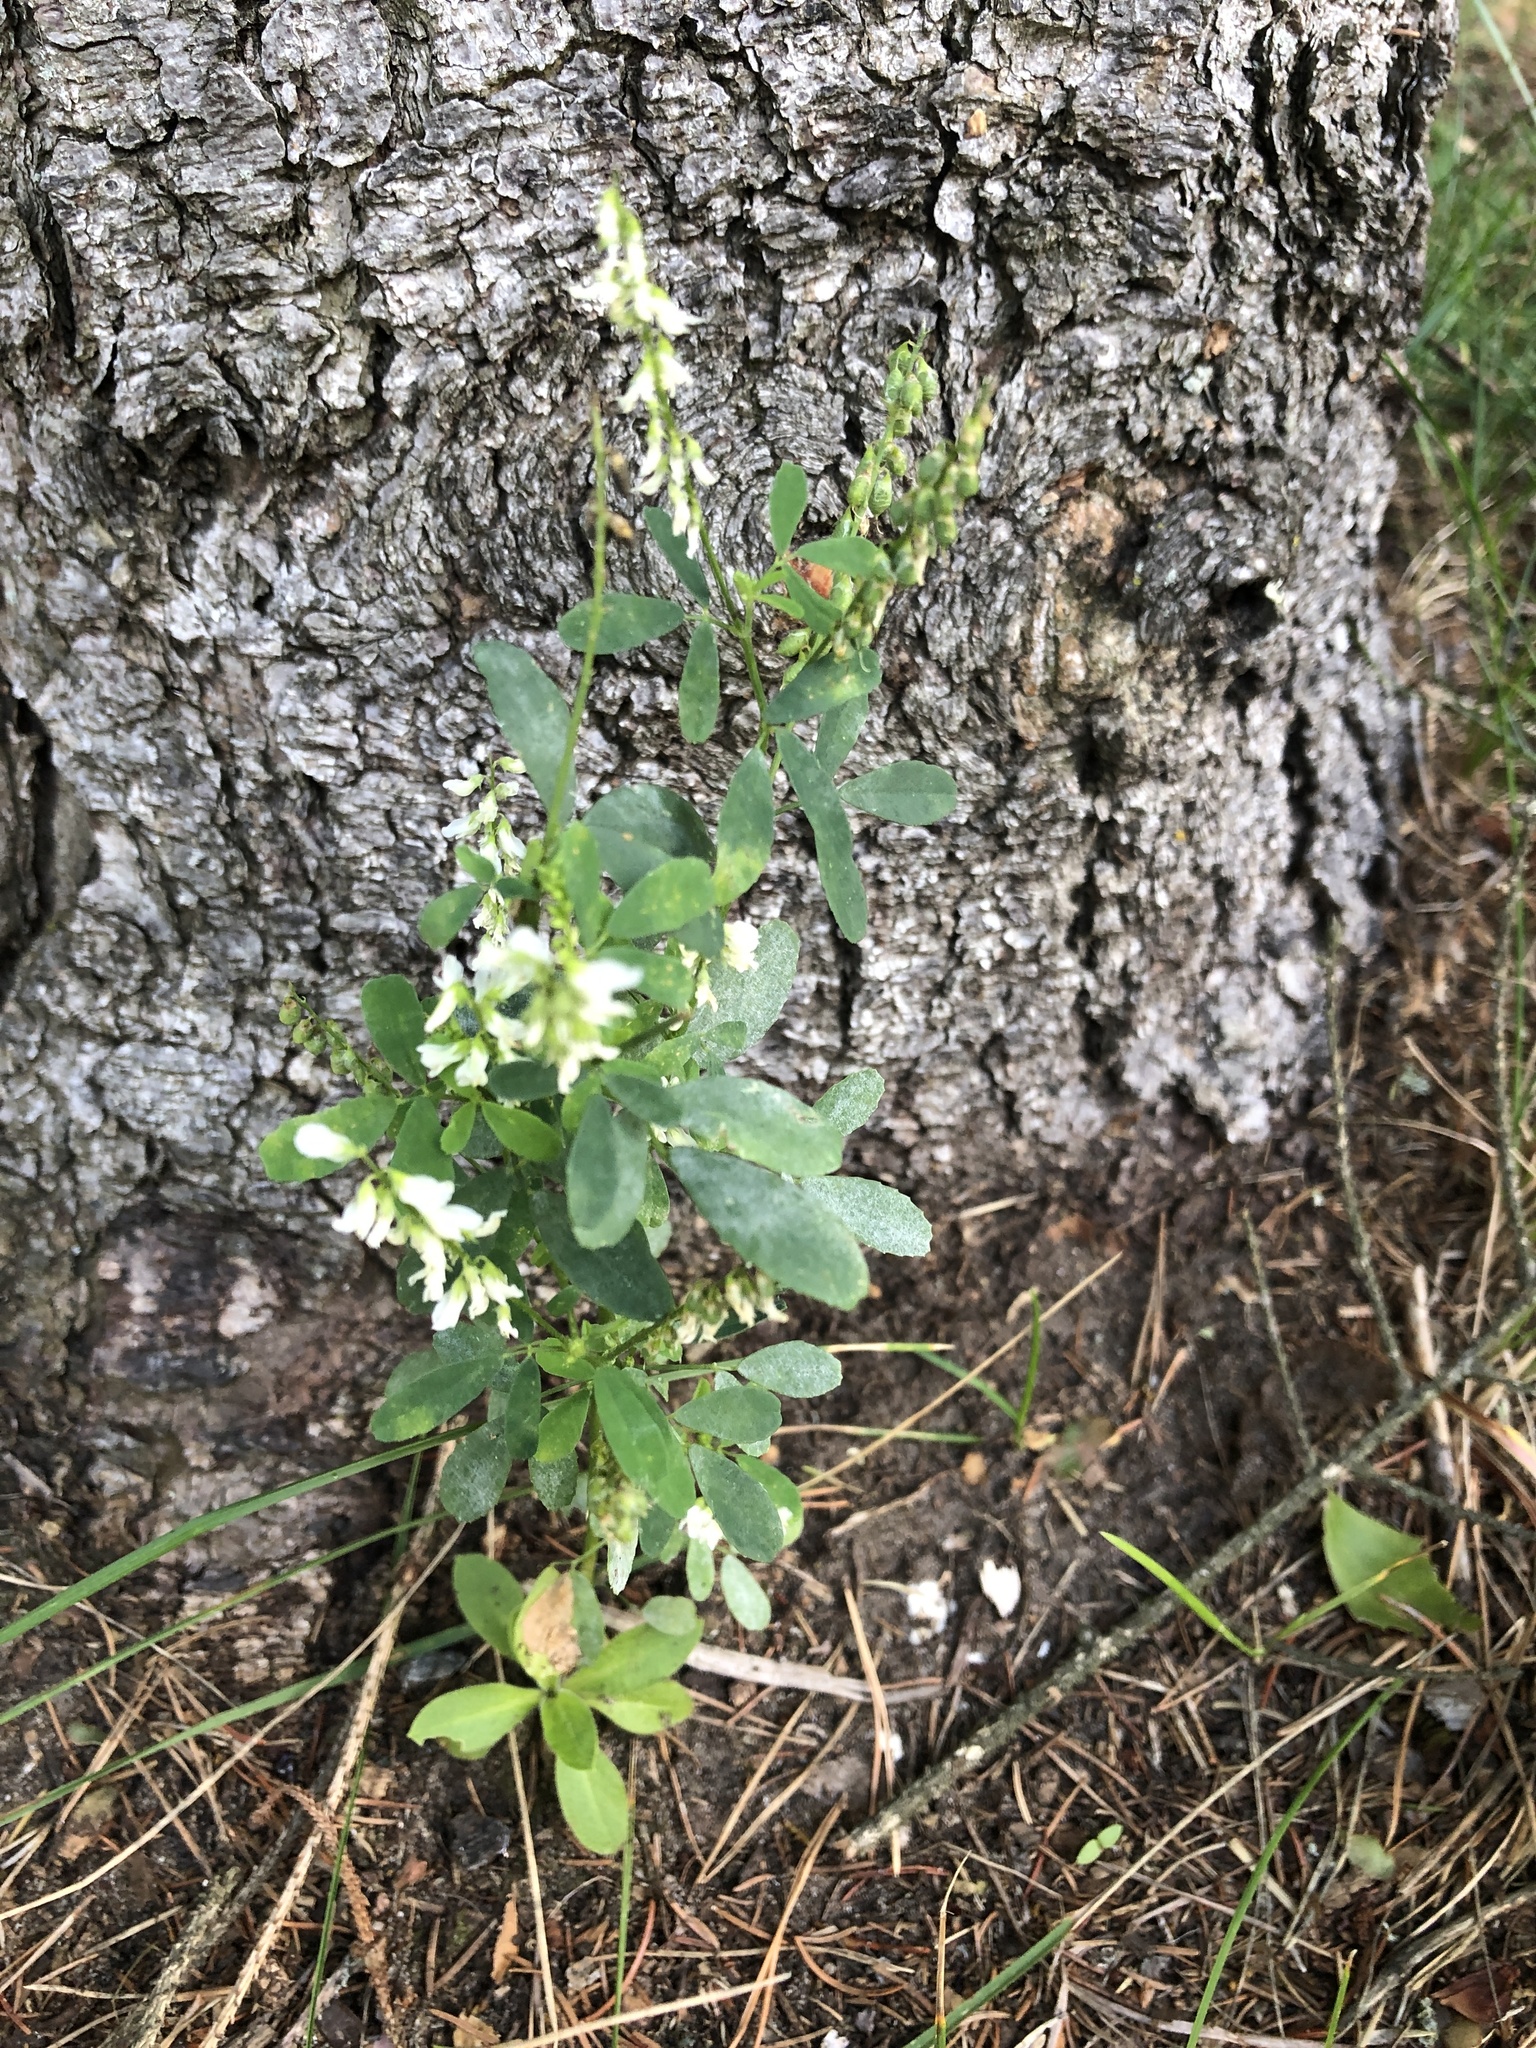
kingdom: Plantae
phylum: Tracheophyta
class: Magnoliopsida
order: Fabales
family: Fabaceae
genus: Melilotus
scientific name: Melilotus albus
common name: White melilot
